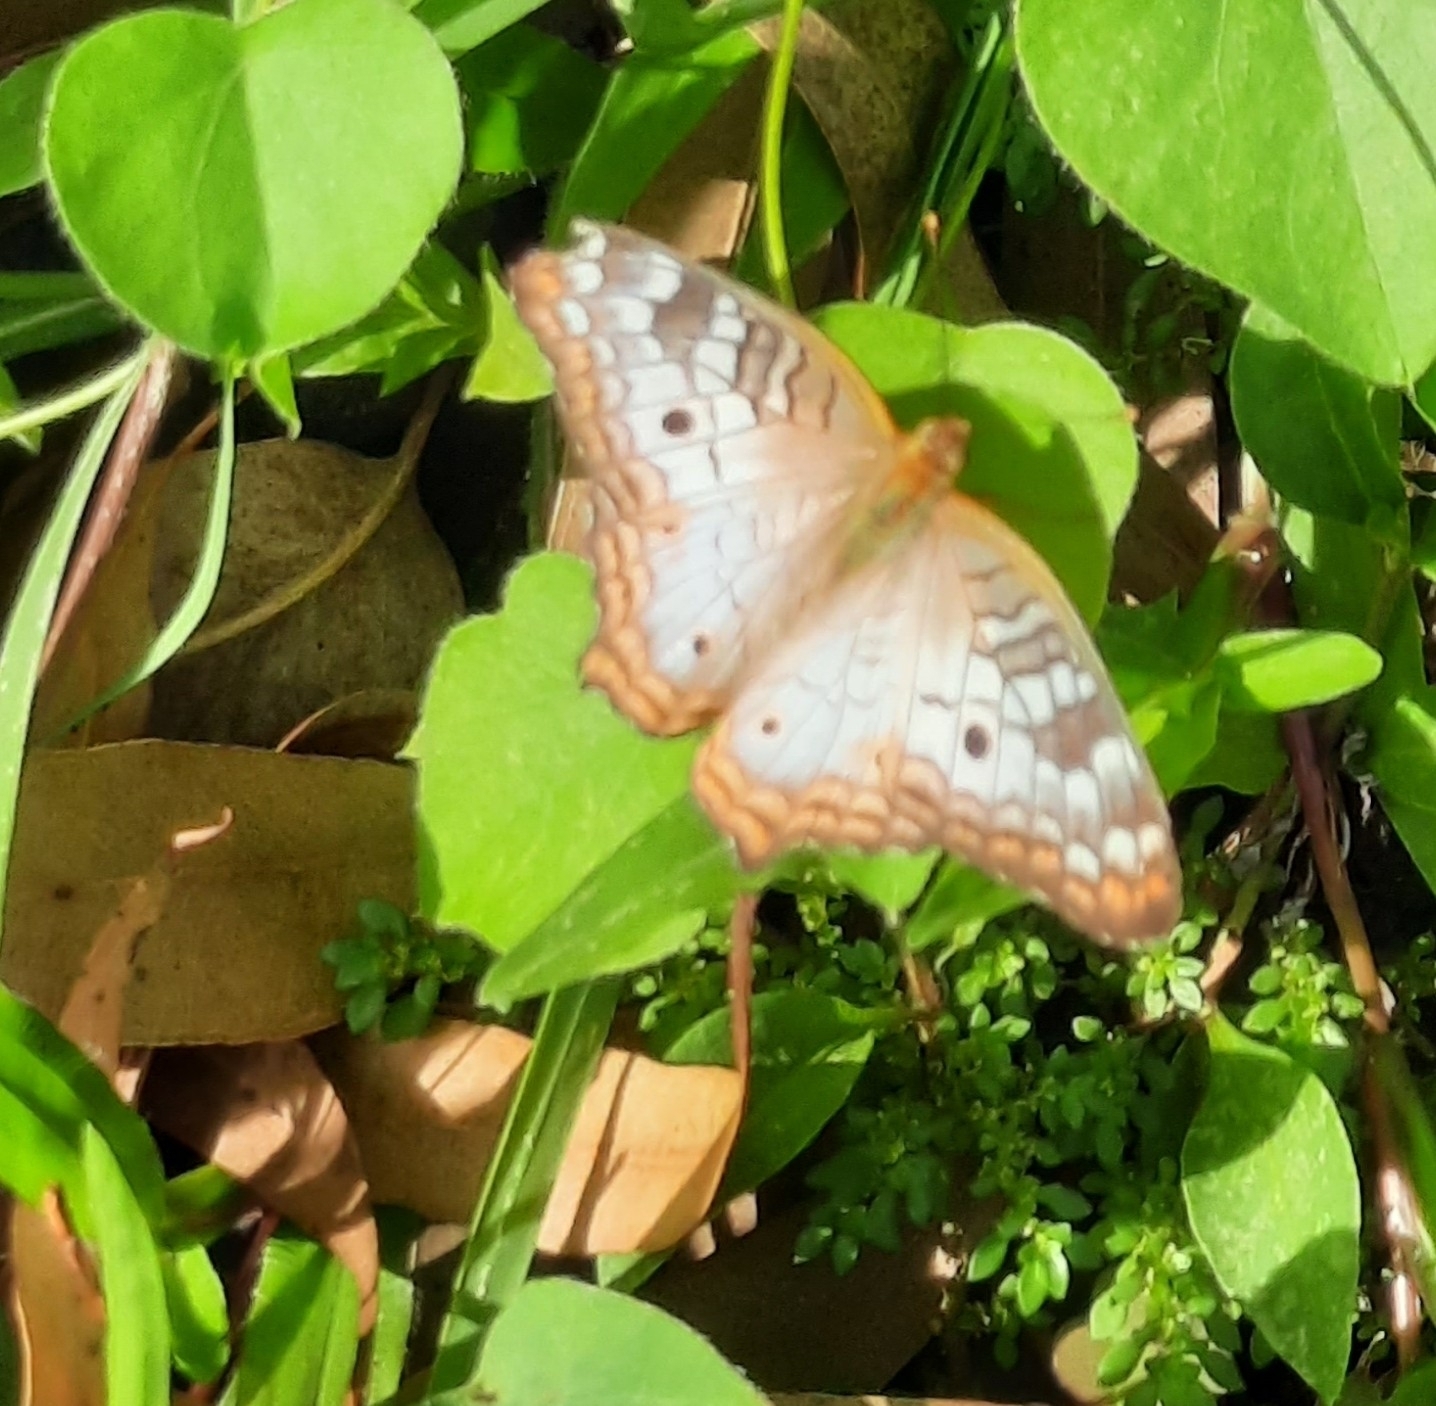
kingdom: Animalia
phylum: Arthropoda
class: Insecta
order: Lepidoptera
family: Nymphalidae
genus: Anartia
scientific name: Anartia jatrophae
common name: White peacock
